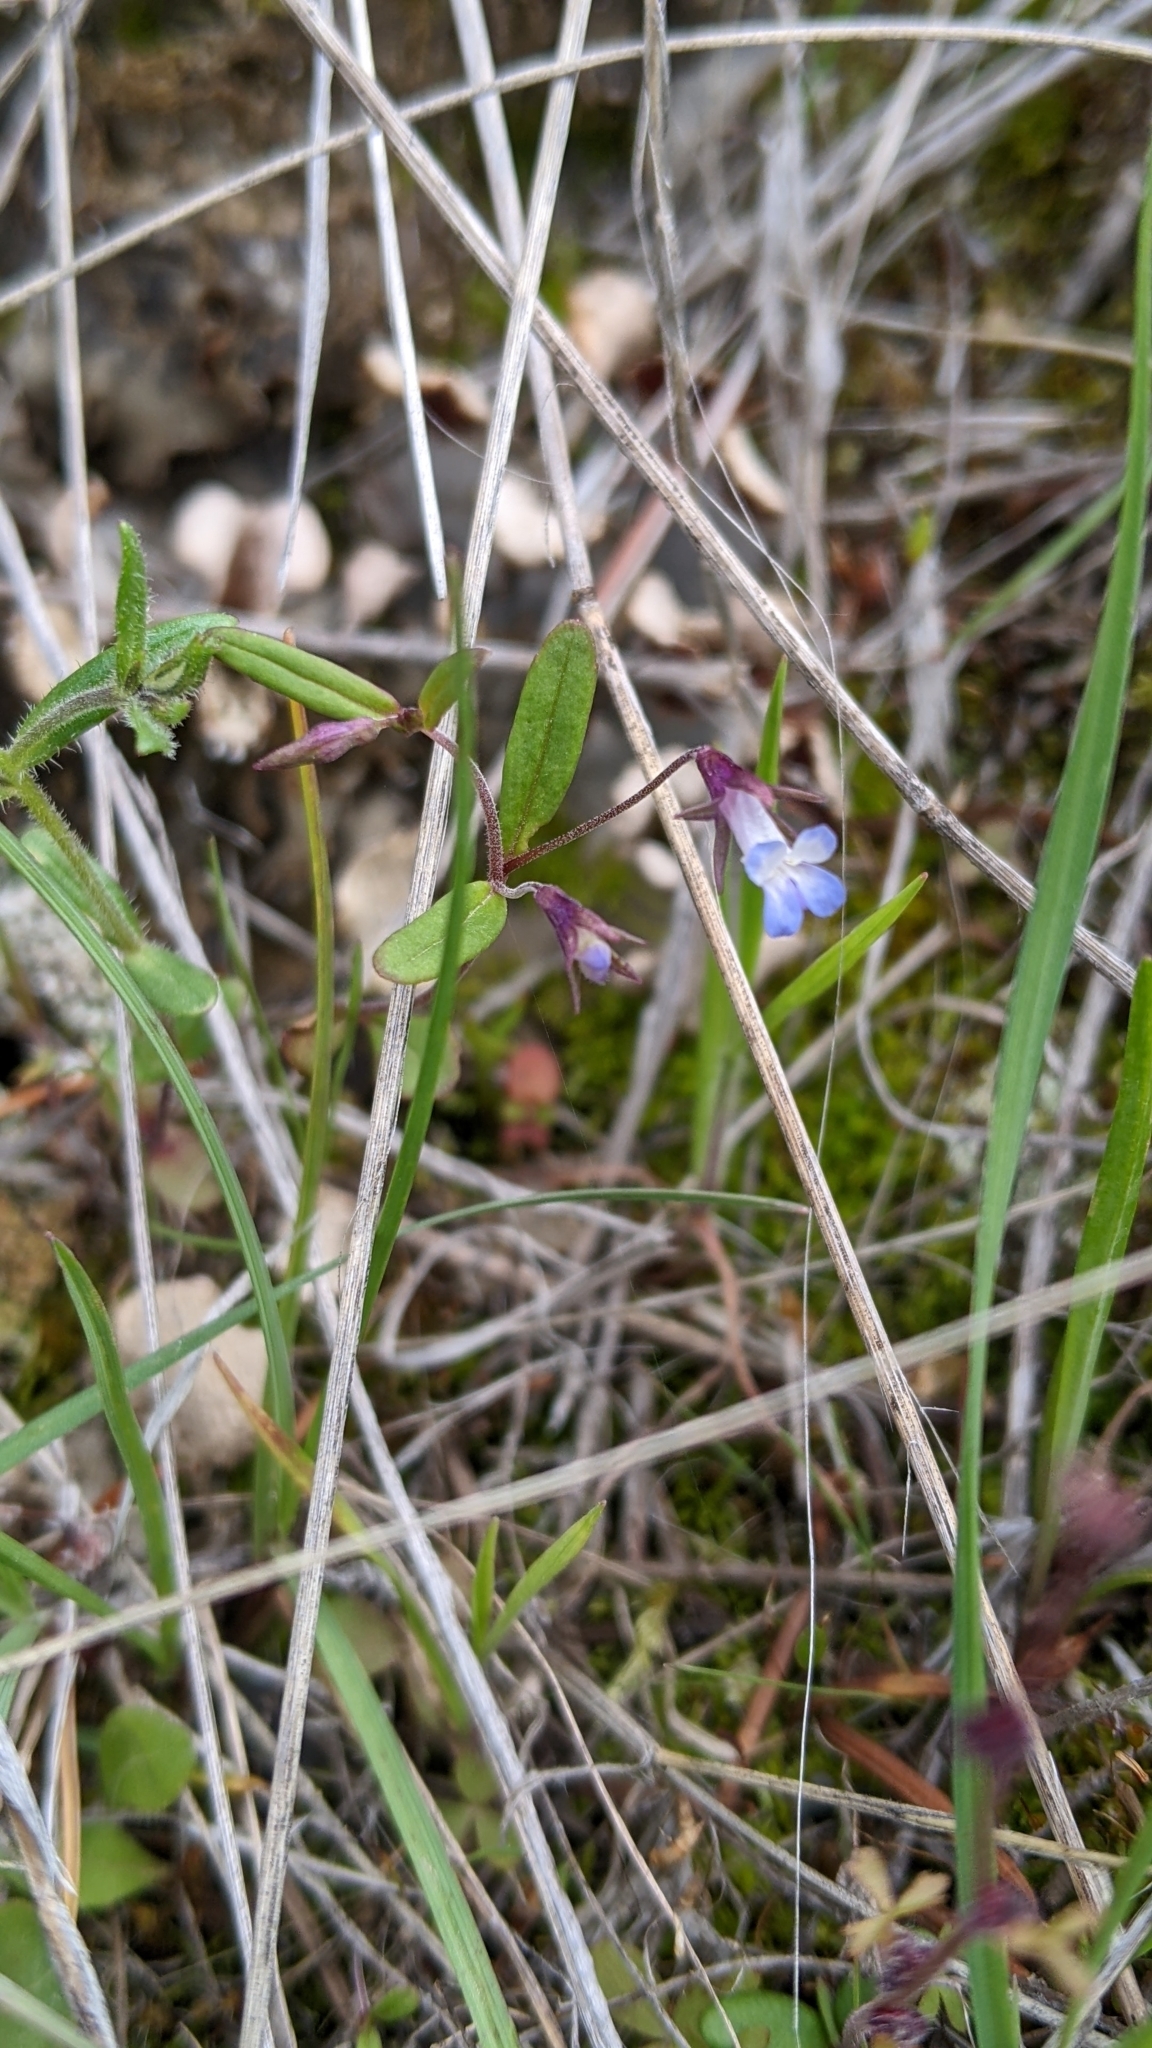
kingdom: Plantae
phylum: Tracheophyta
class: Magnoliopsida
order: Lamiales
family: Plantaginaceae
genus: Collinsia
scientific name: Collinsia parviflora
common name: Blue-lips
